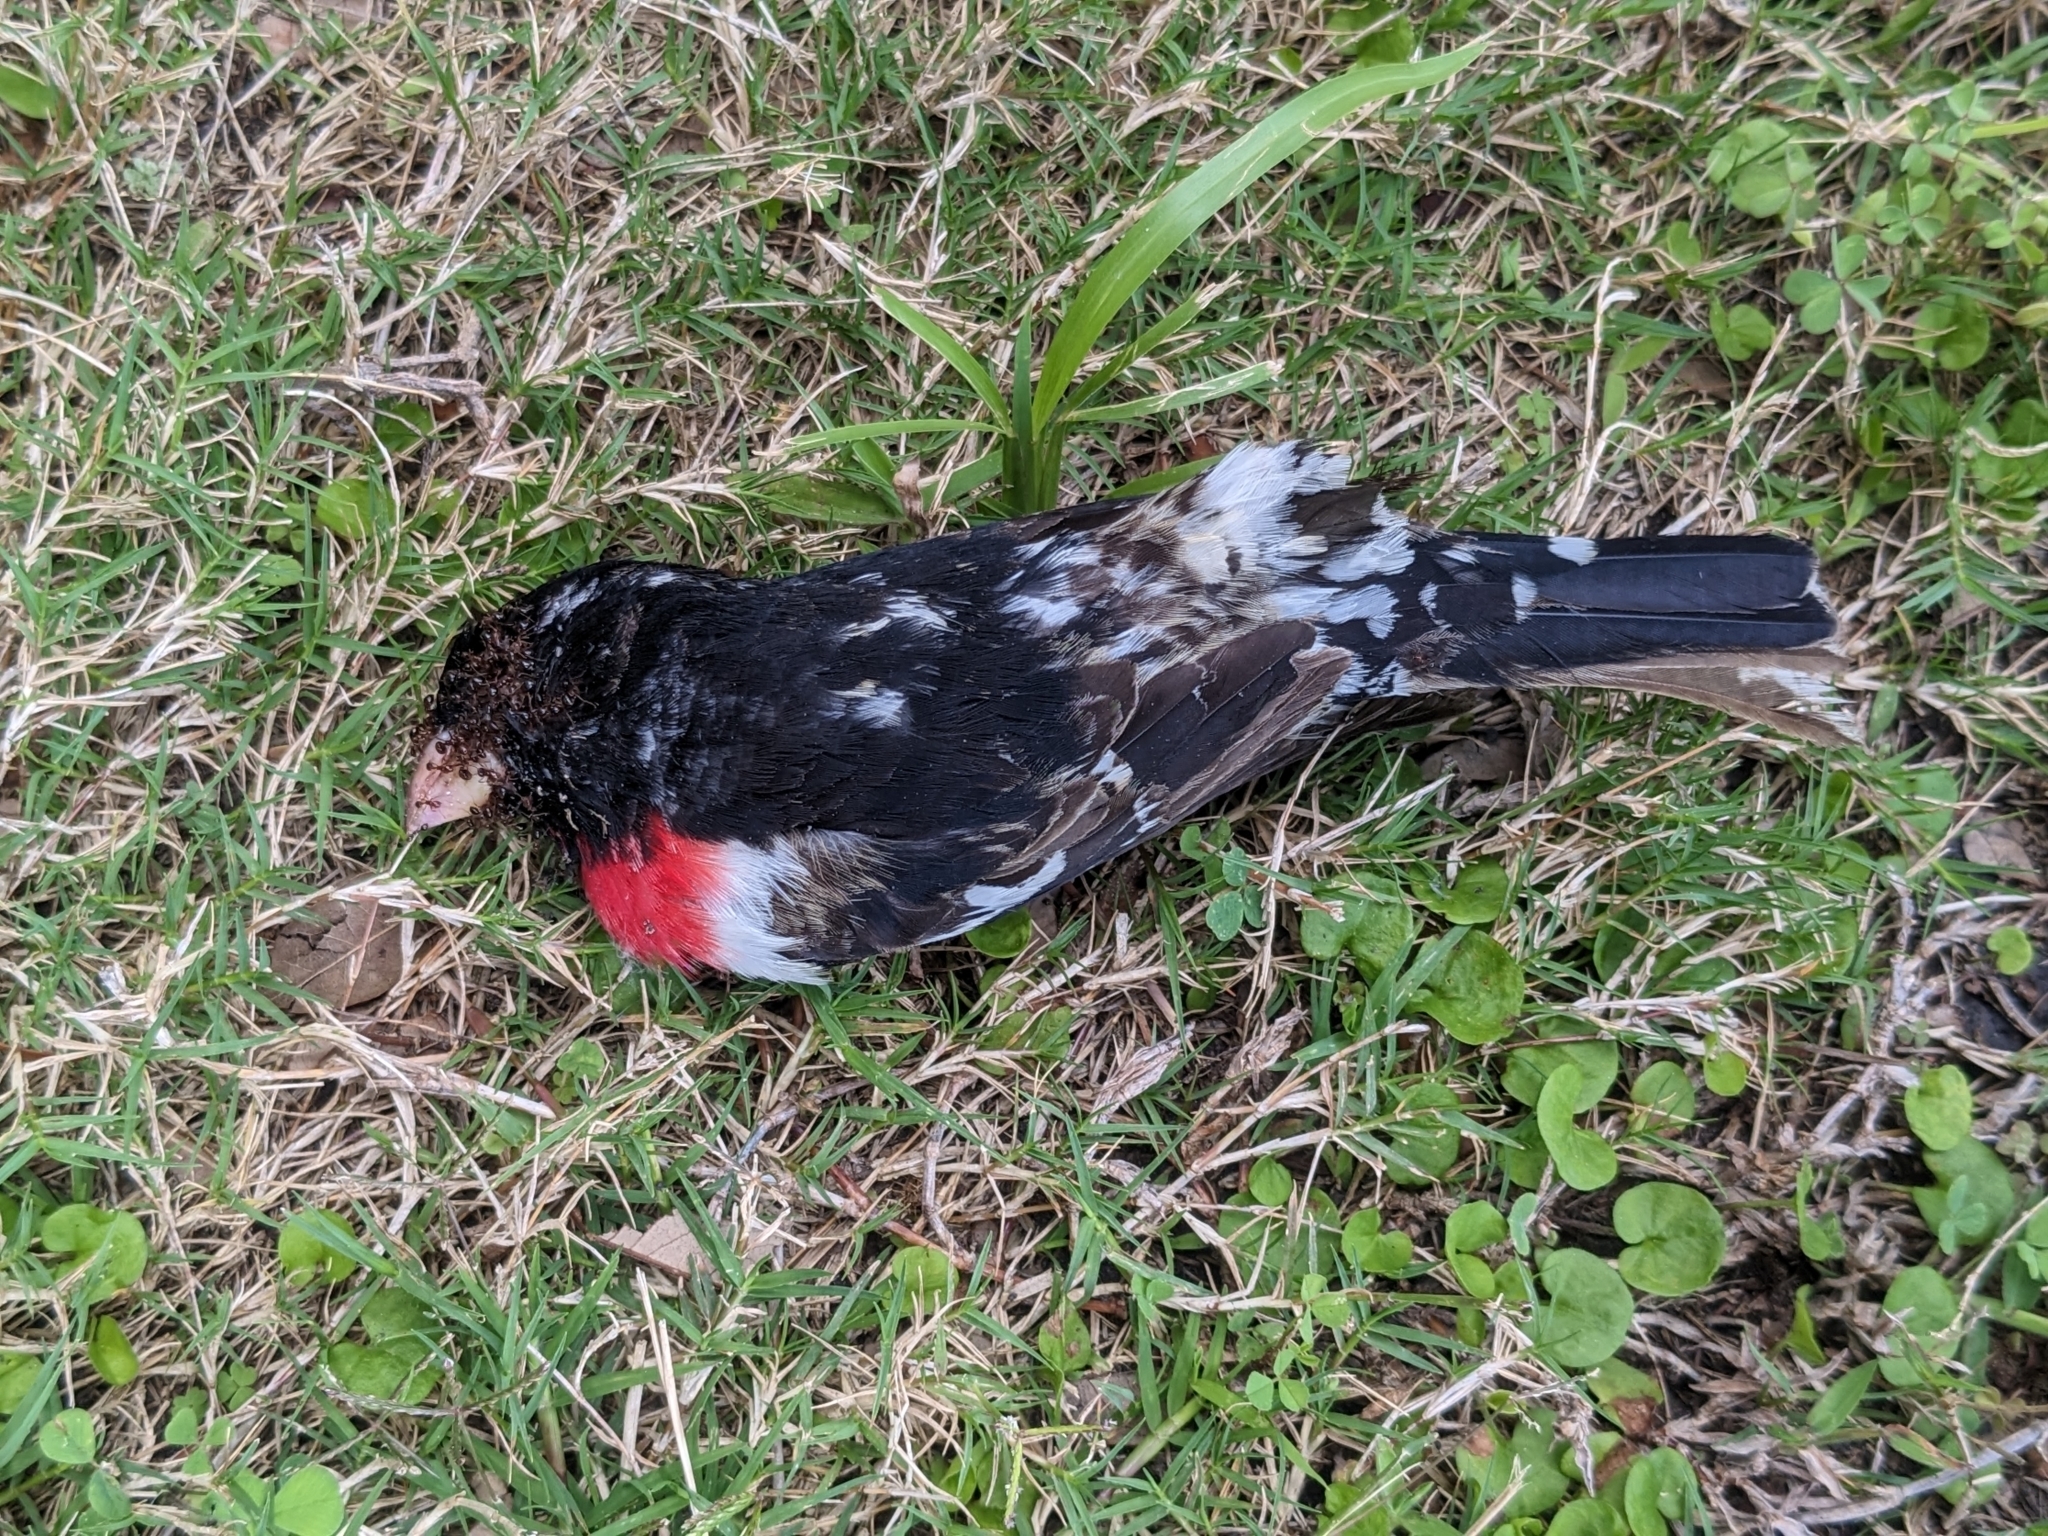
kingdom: Animalia
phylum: Chordata
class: Aves
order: Passeriformes
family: Cardinalidae
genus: Pheucticus
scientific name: Pheucticus ludovicianus
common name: Rose-breasted grosbeak
